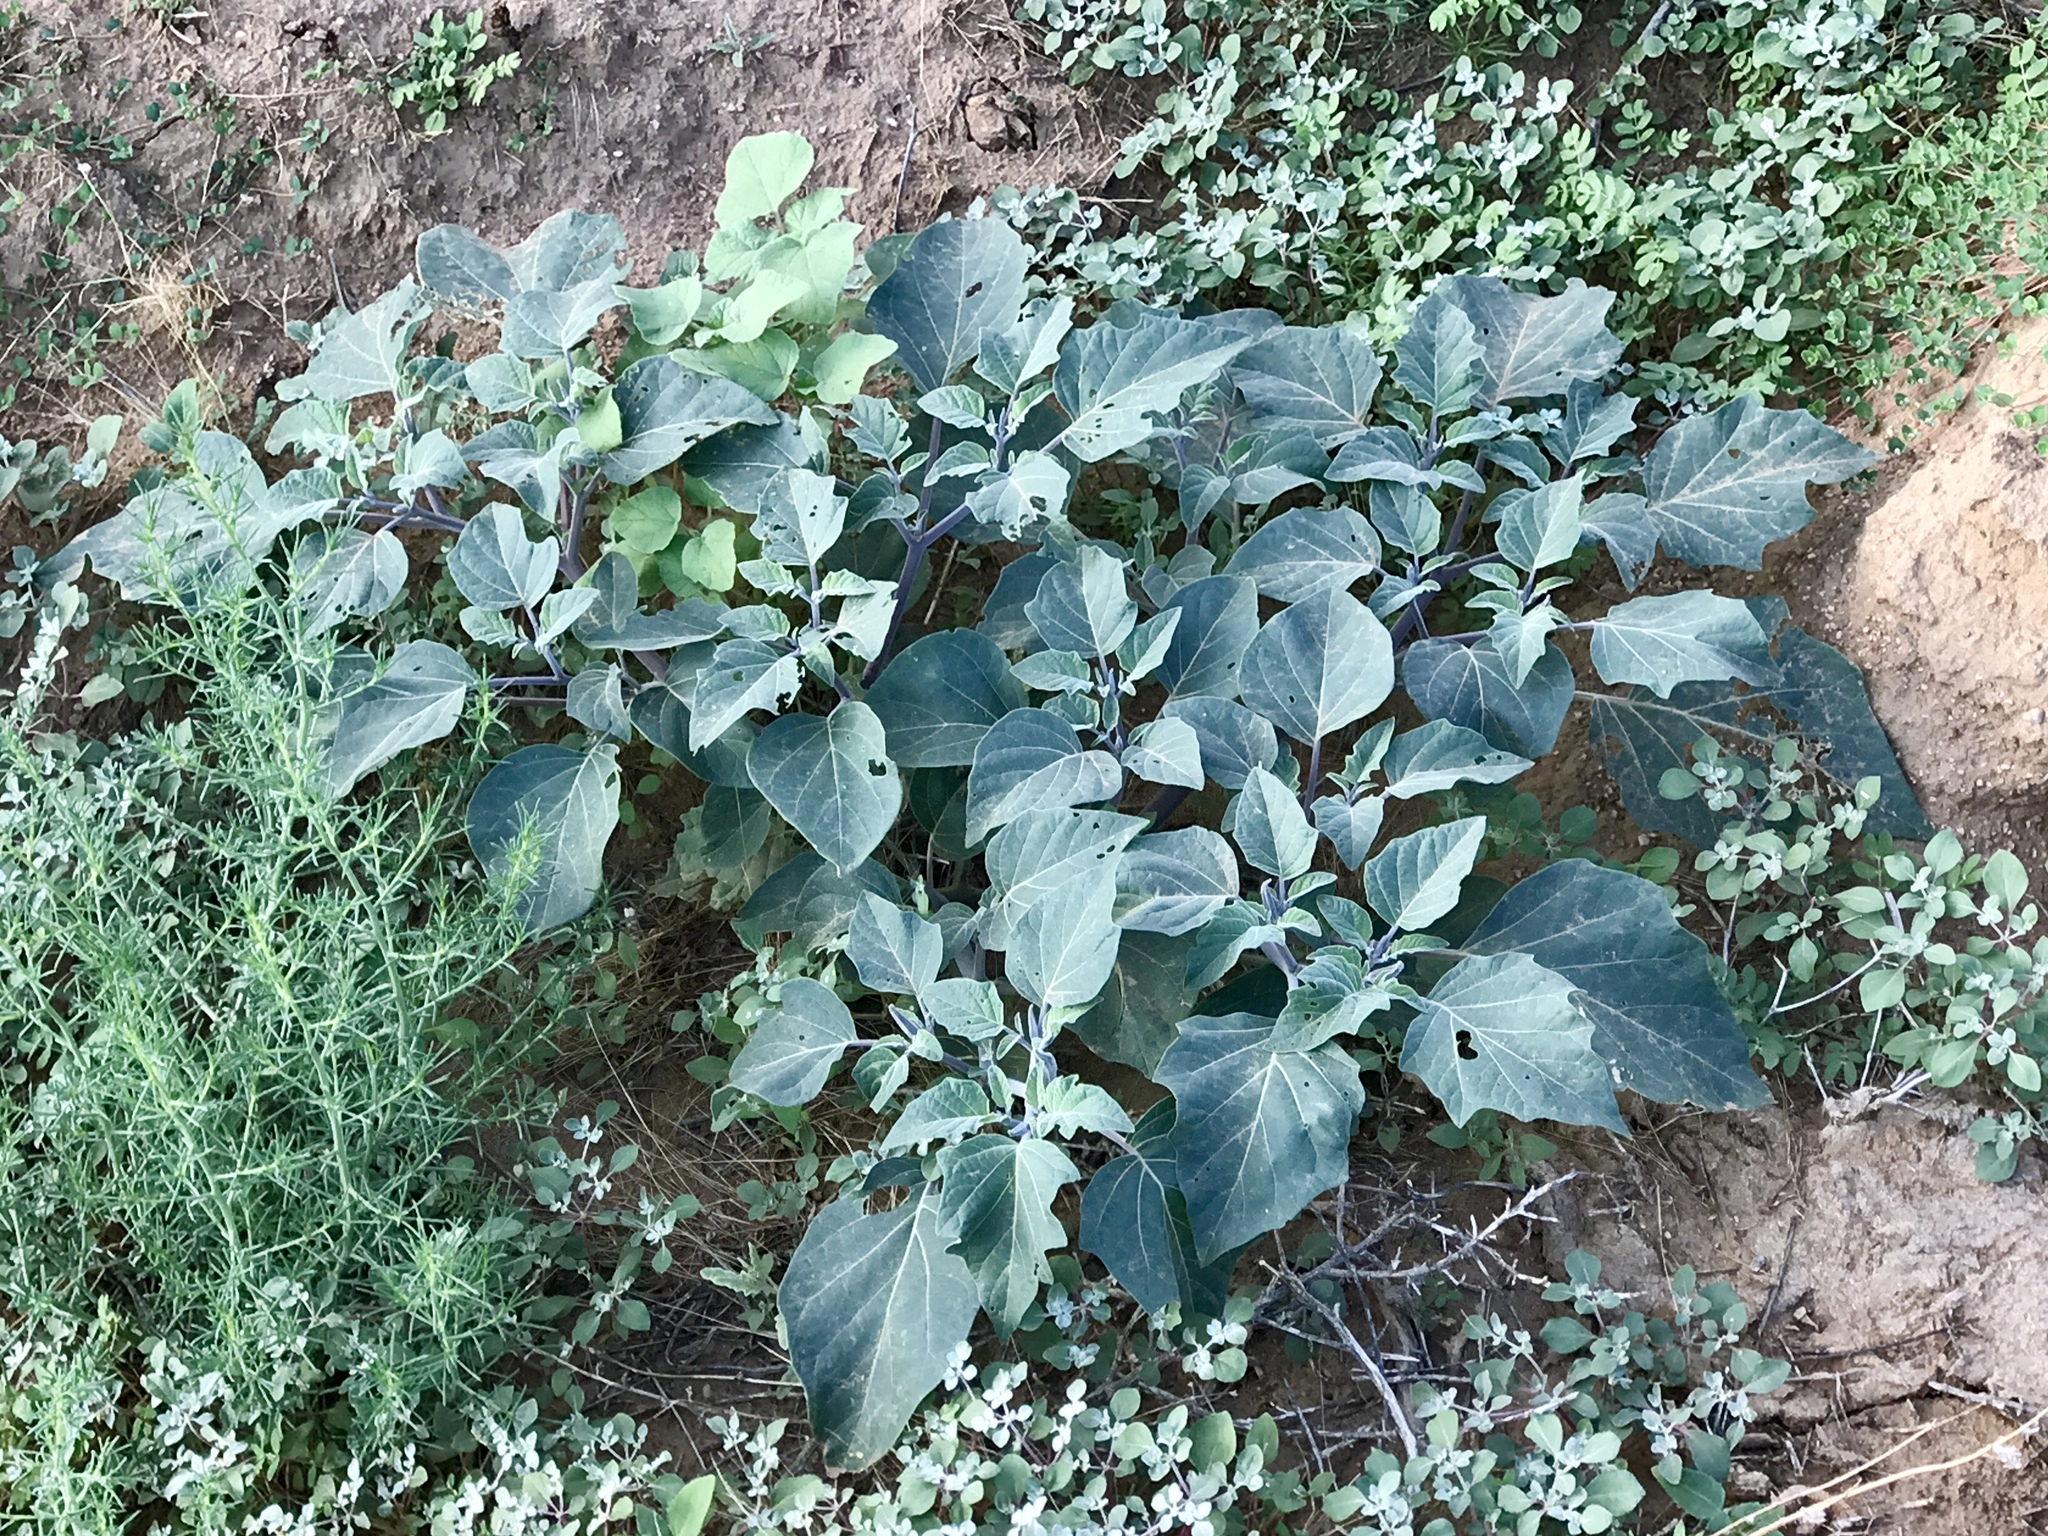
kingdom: Plantae
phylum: Tracheophyta
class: Magnoliopsida
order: Solanales
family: Solanaceae
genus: Datura
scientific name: Datura wrightii
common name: Sacred thorn-apple
